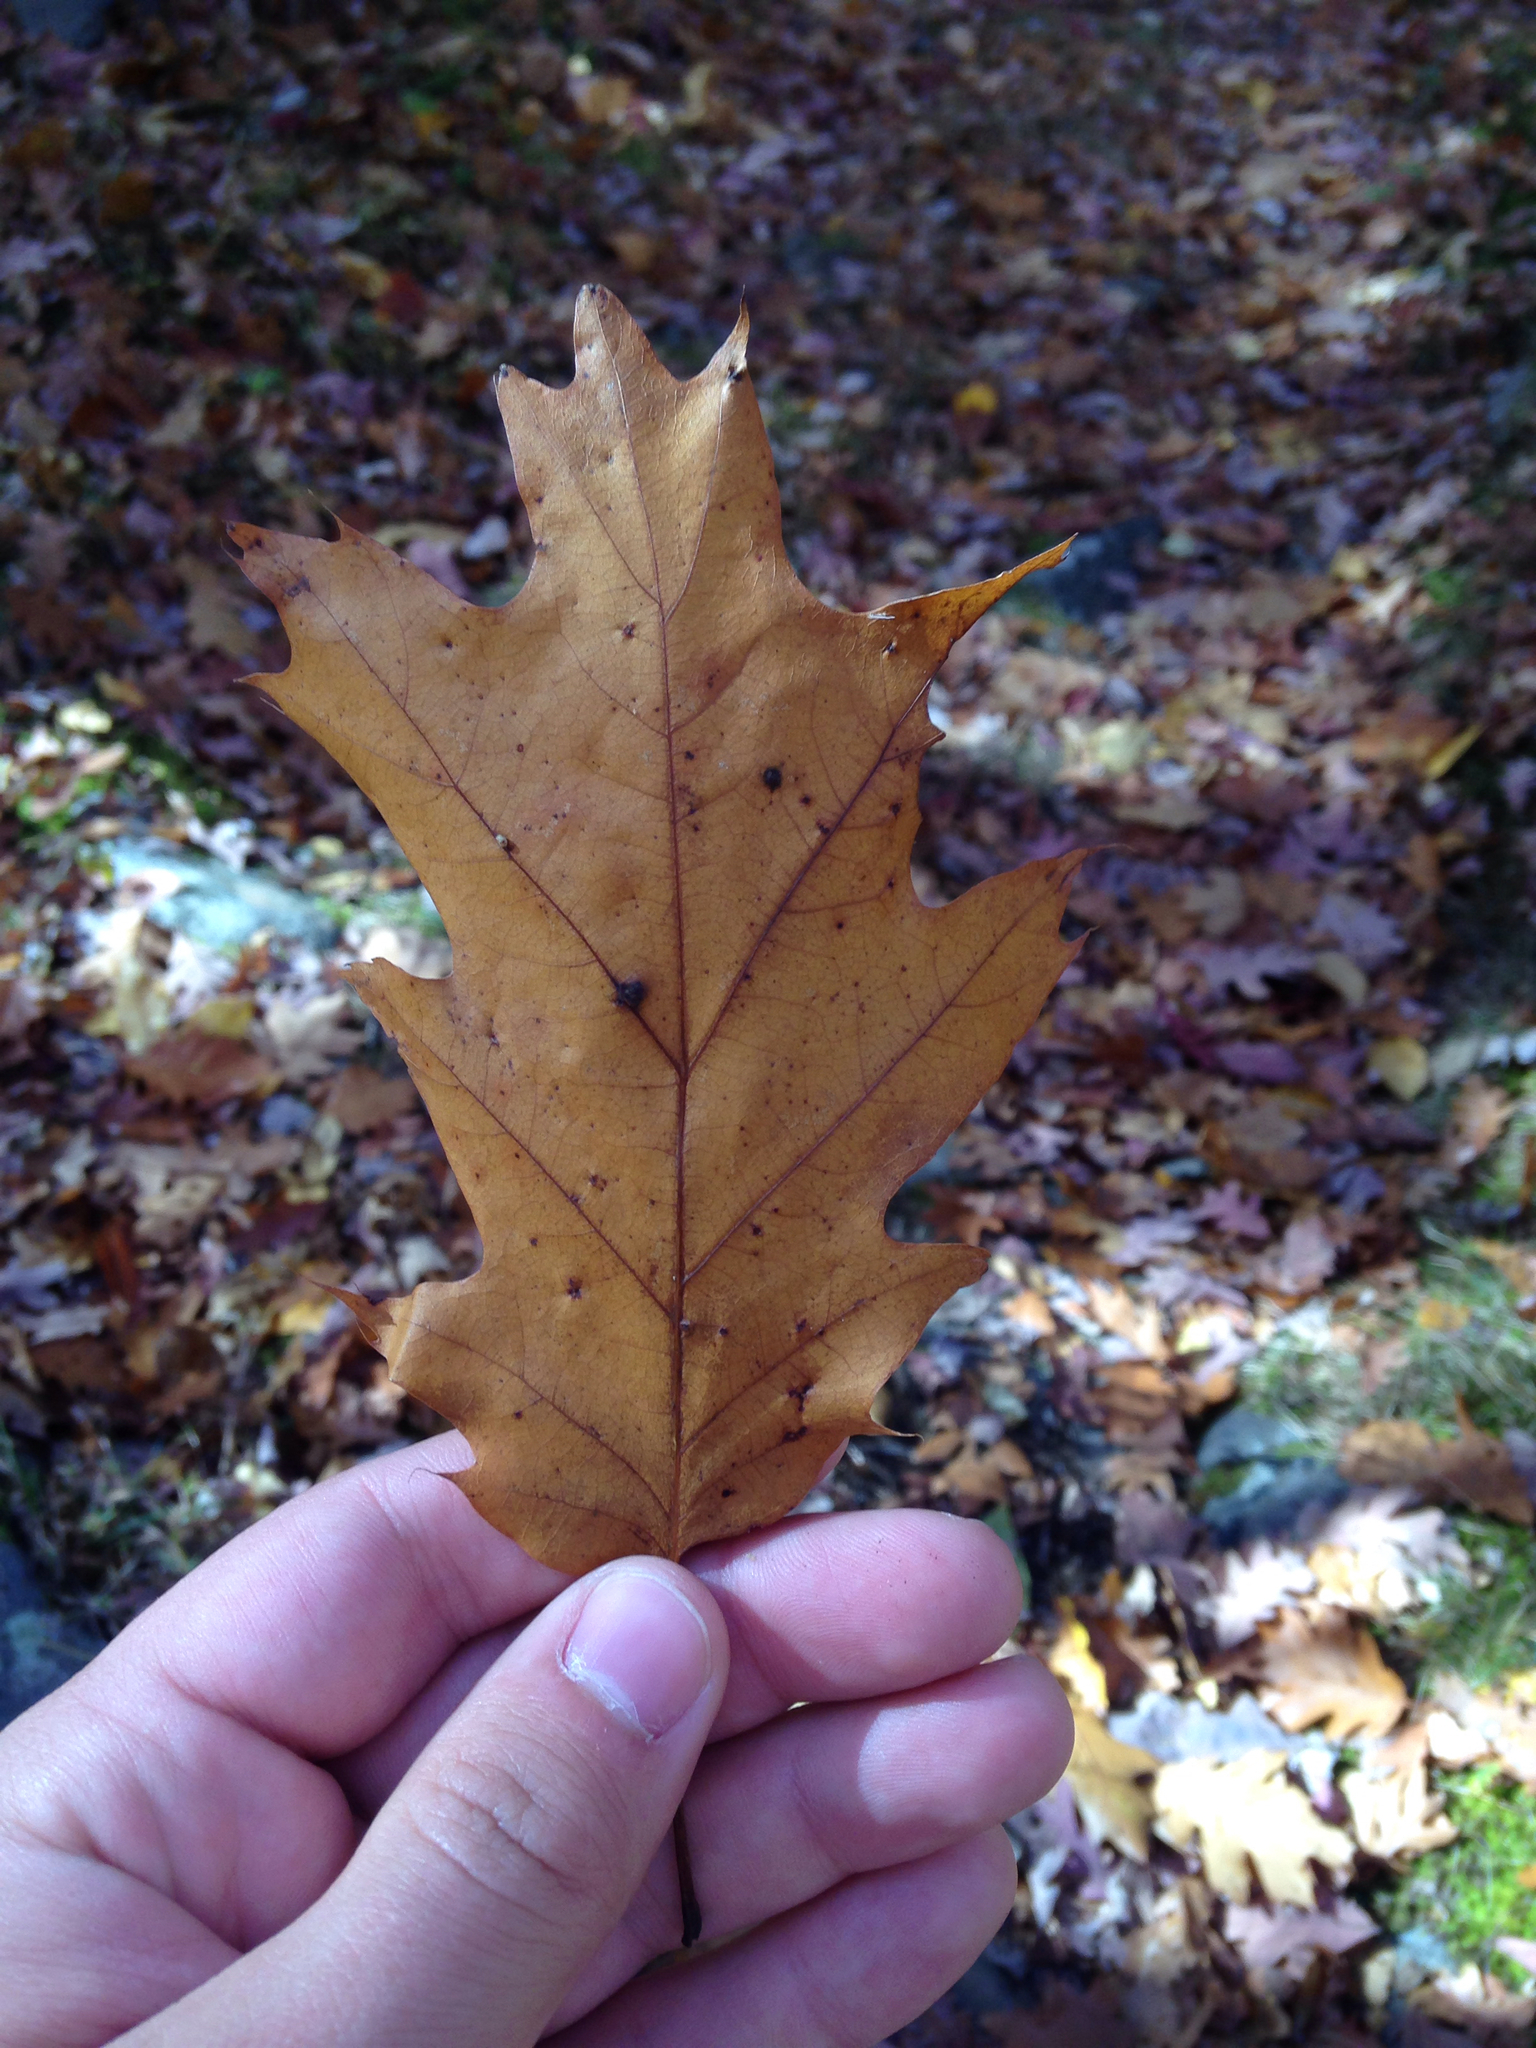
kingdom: Plantae
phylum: Tracheophyta
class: Magnoliopsida
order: Fagales
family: Fagaceae
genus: Quercus
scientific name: Quercus rubra
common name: Red oak
